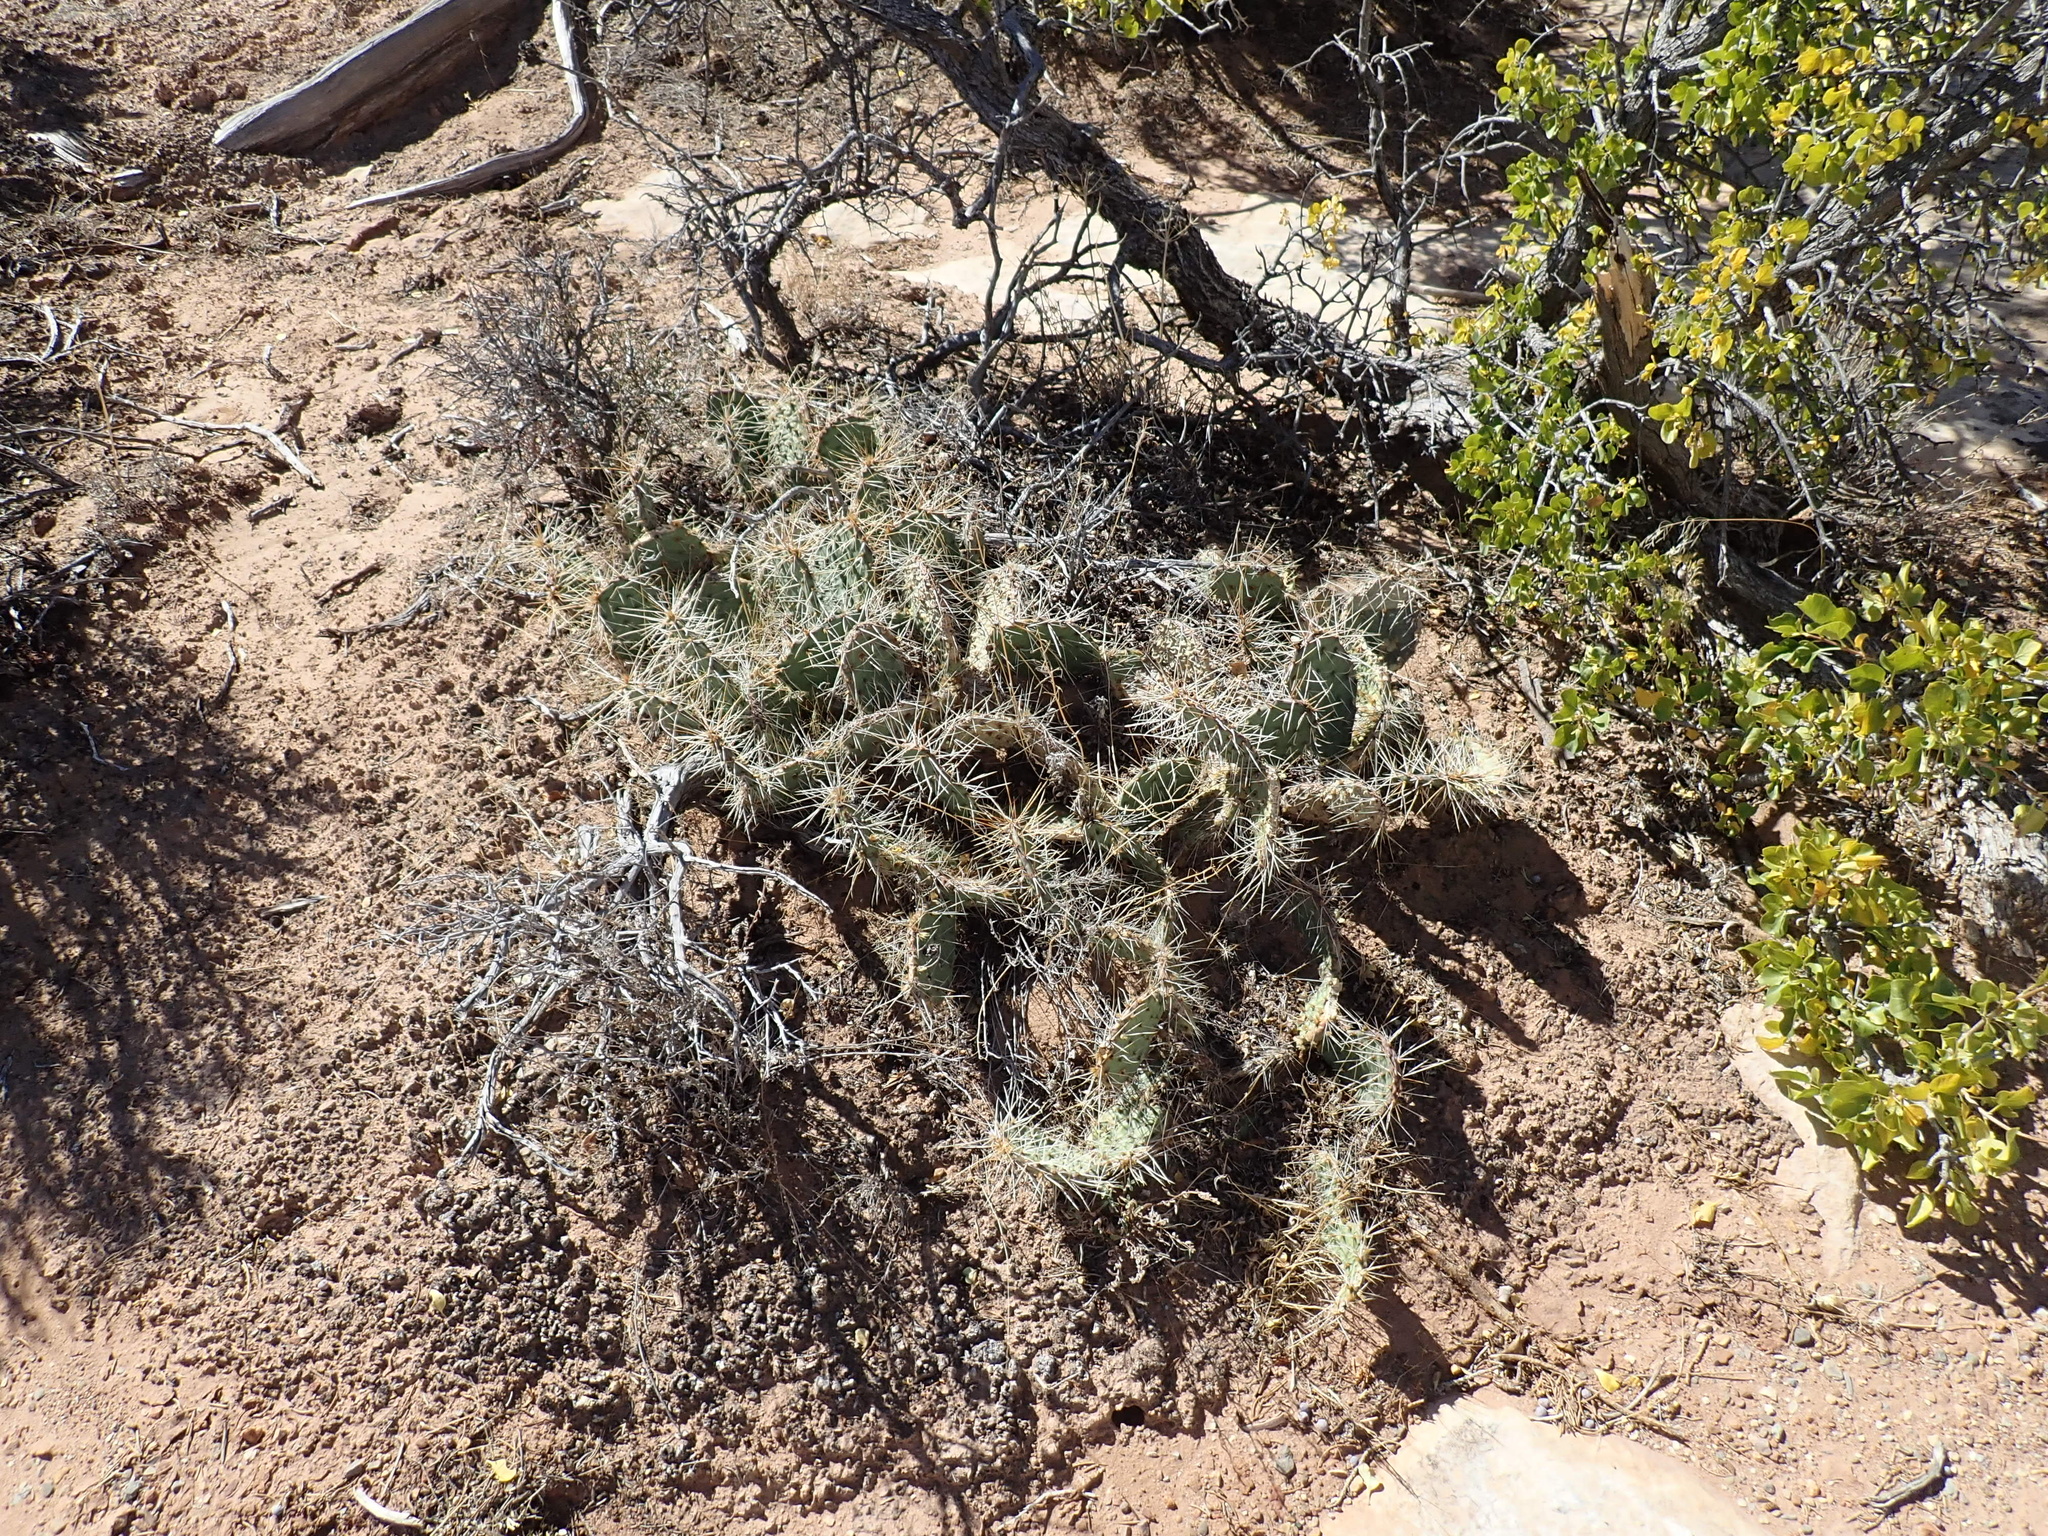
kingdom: Plantae
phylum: Tracheophyta
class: Magnoliopsida
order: Caryophyllales
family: Cactaceae
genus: Opuntia
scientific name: Opuntia phaeacantha
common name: New mexico prickly-pear
